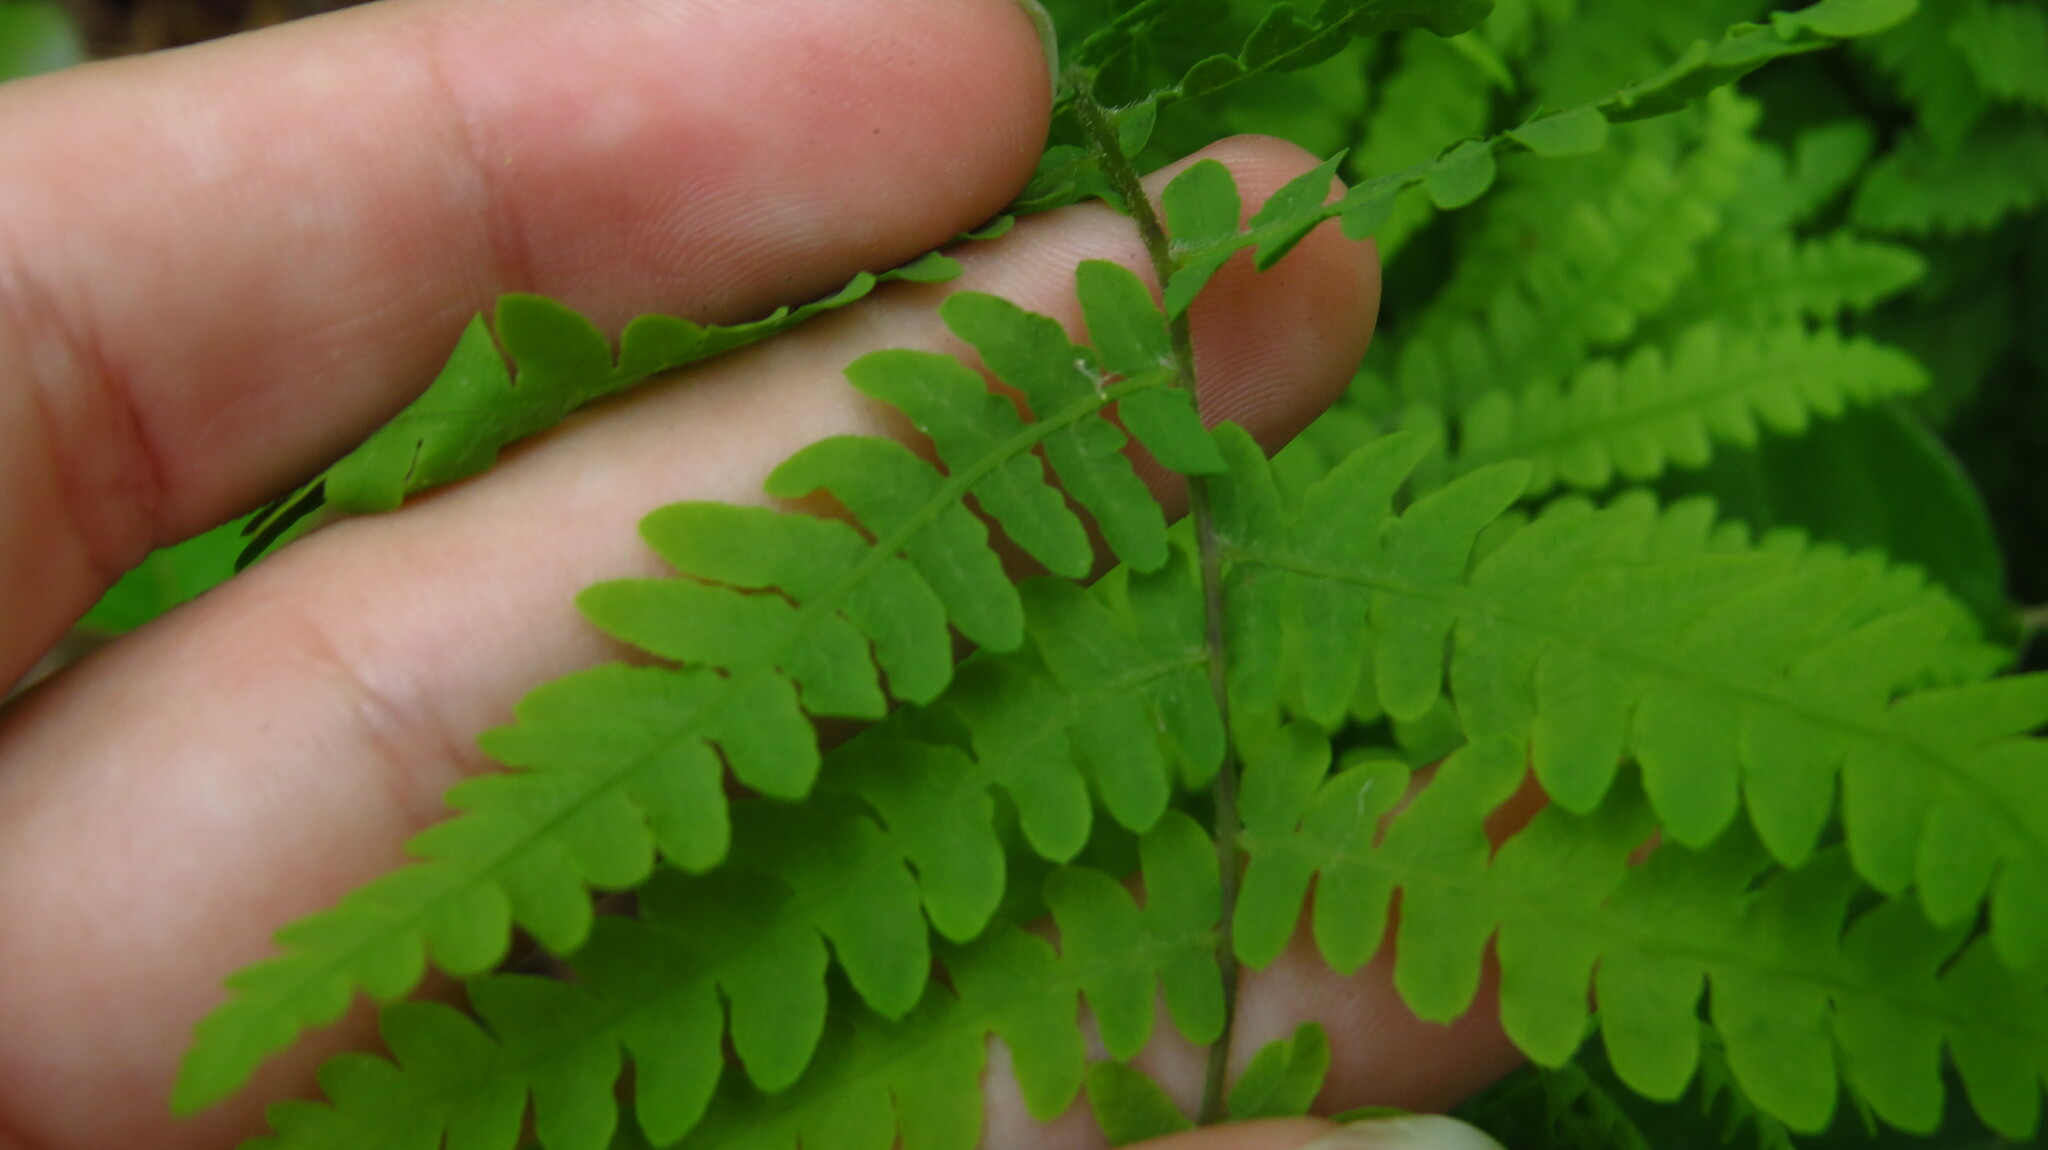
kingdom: Plantae
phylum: Tracheophyta
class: Polypodiopsida
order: Polypodiales
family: Thelypteridaceae
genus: Thelypteris
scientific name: Thelypteris palustris
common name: Marsh fern
